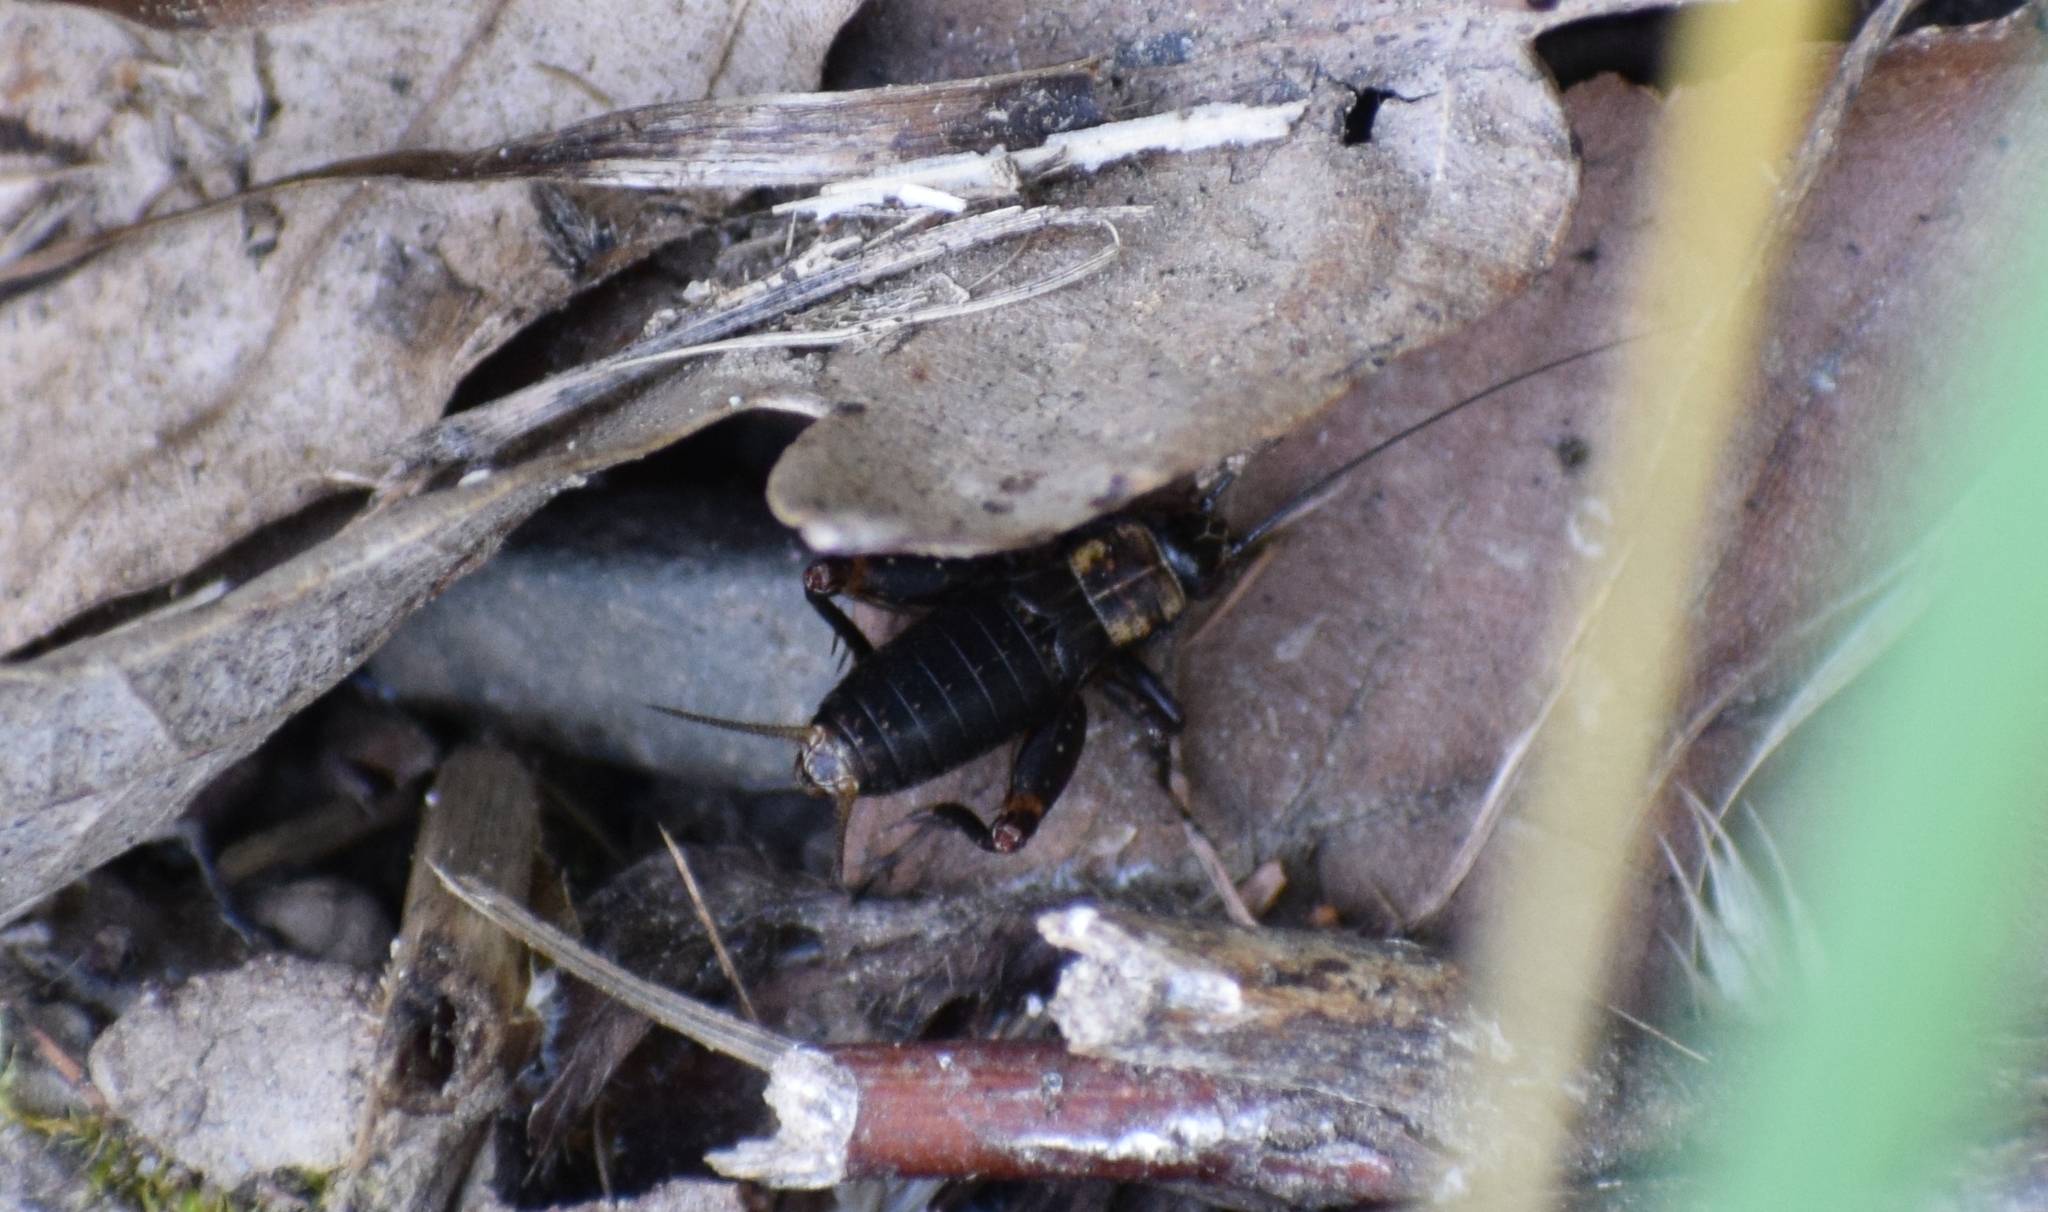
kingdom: Animalia
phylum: Arthropoda
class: Insecta
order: Orthoptera
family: Trigonidiidae
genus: Nemobius
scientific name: Nemobius sylvestris
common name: Wood-cricket
